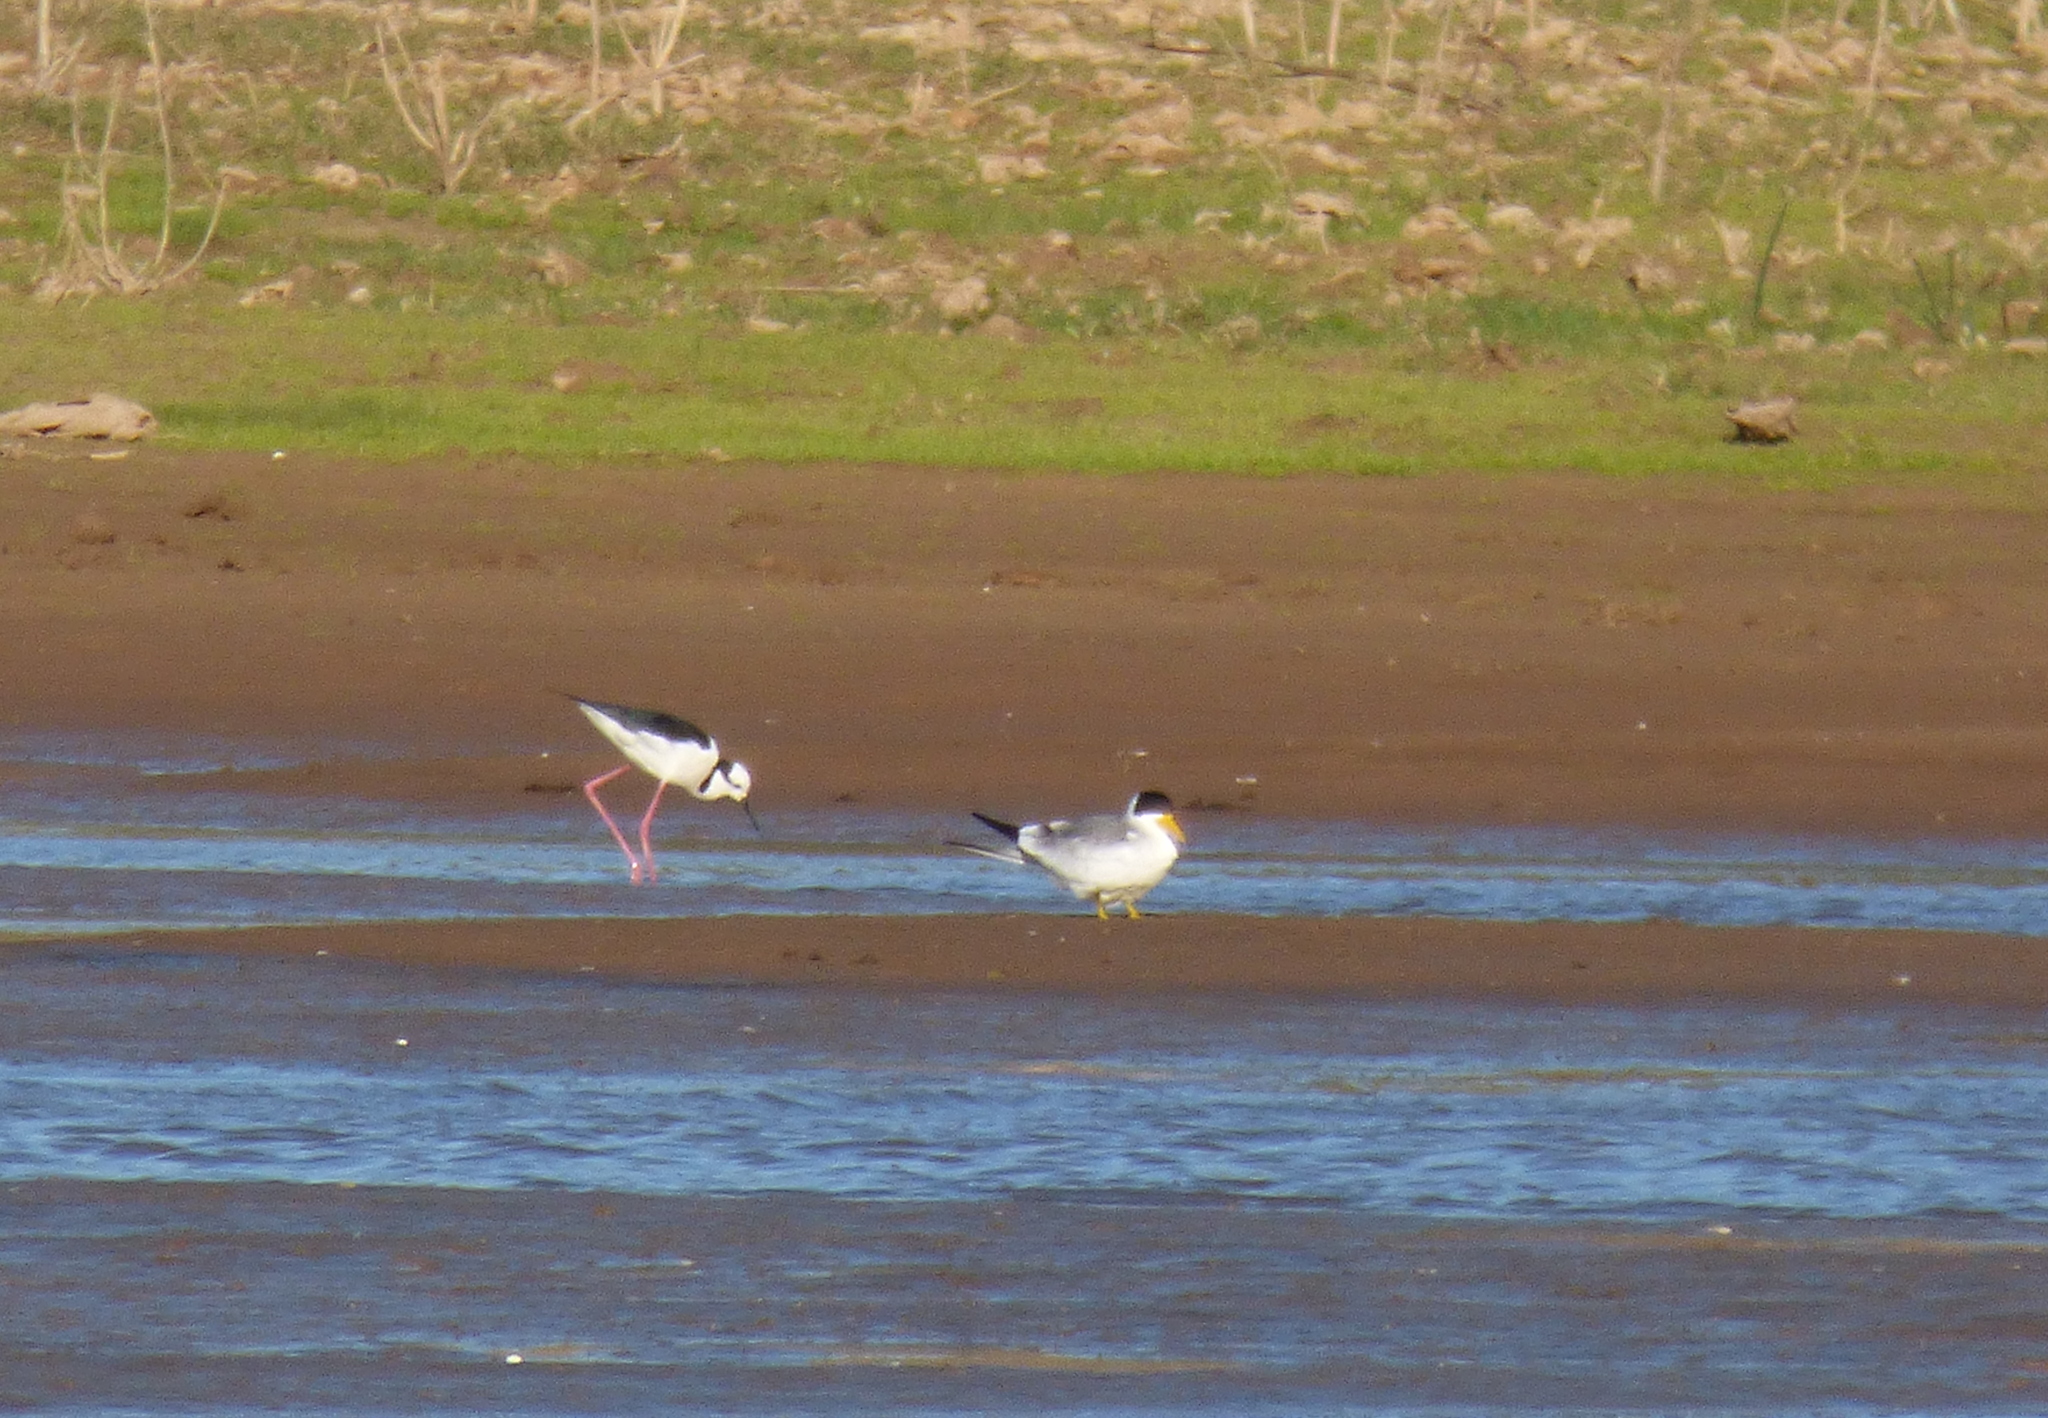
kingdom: Animalia
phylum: Chordata
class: Aves
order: Charadriiformes
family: Laridae
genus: Phaetusa
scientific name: Phaetusa simplex
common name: Large-billed tern
